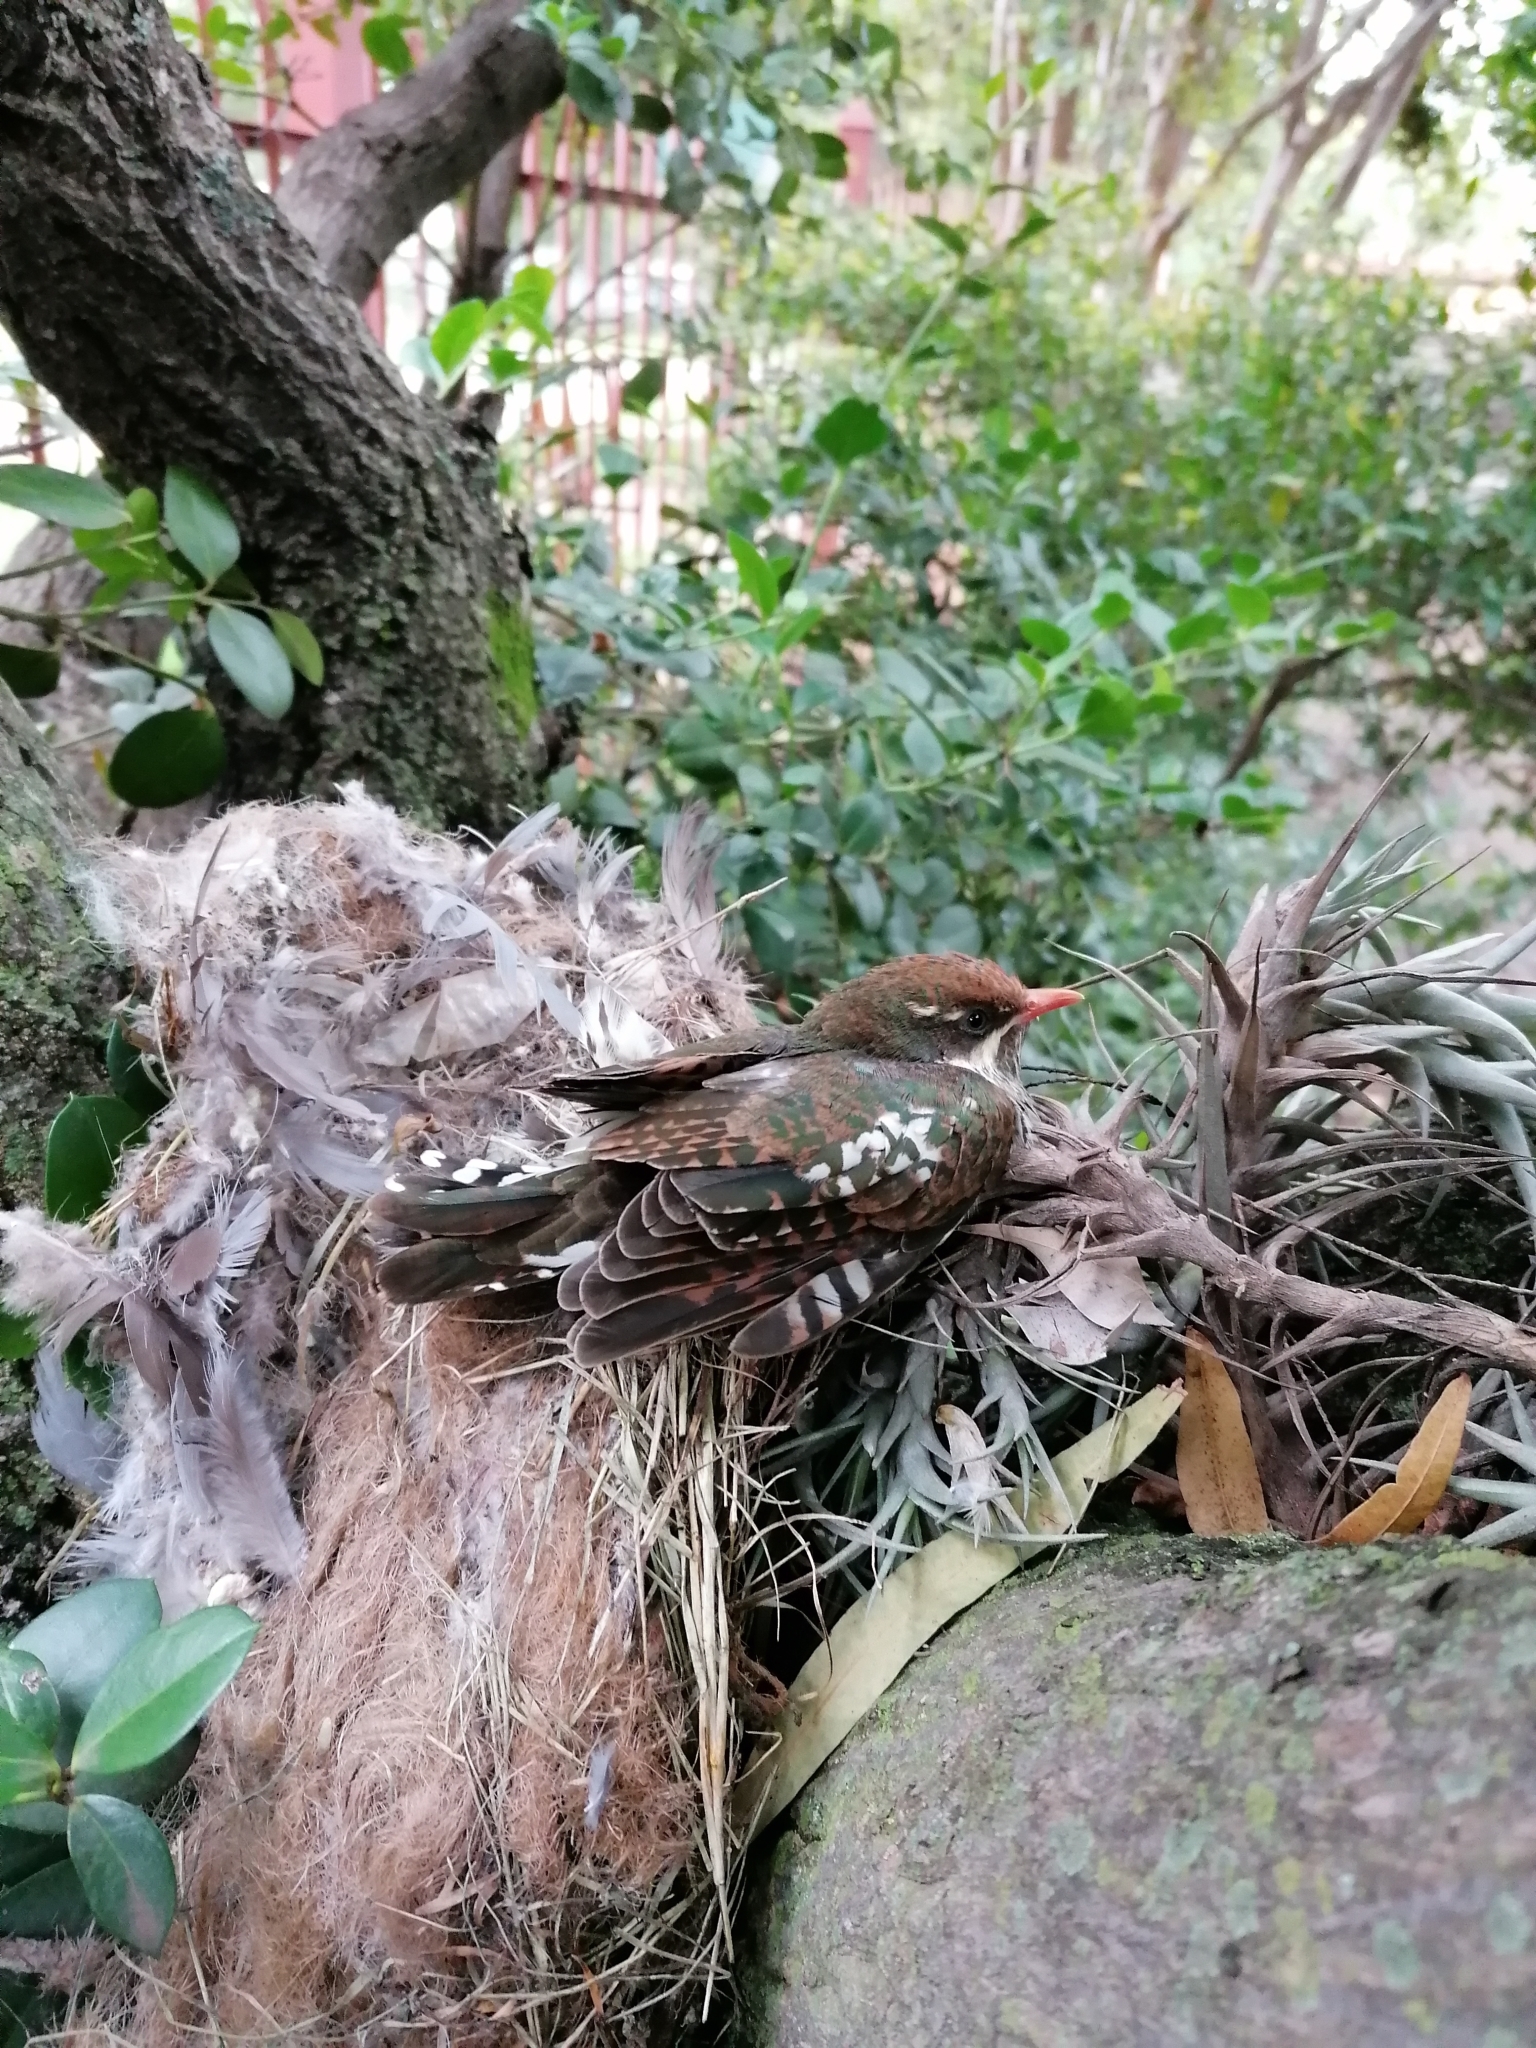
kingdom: Animalia
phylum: Chordata
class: Aves
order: Cuculiformes
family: Cuculidae
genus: Chrysococcyx
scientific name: Chrysococcyx caprius
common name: Diederik cuckoo
